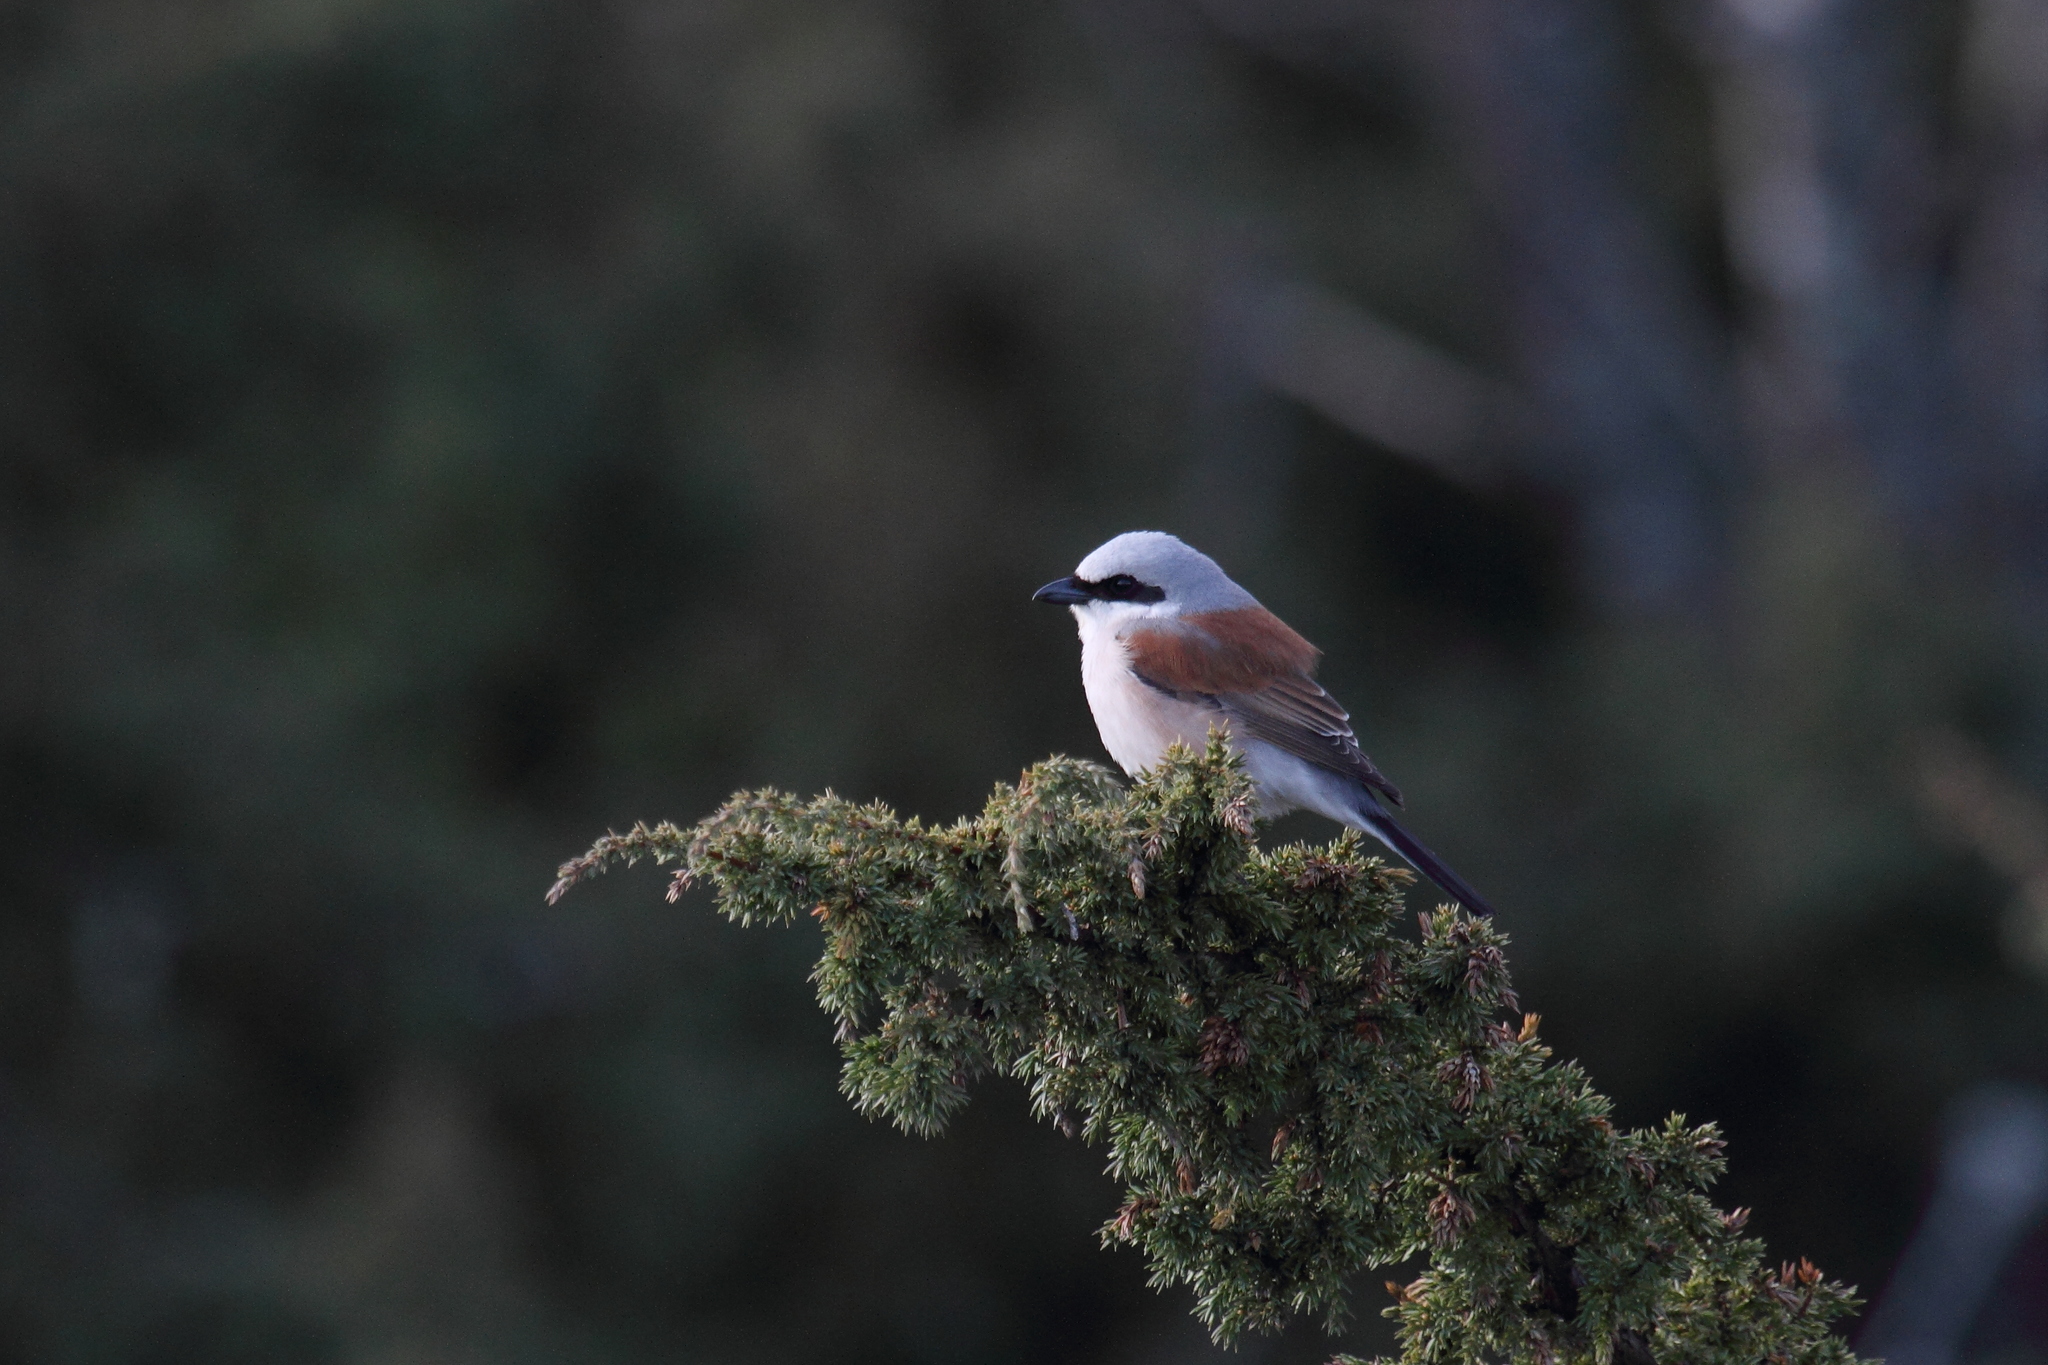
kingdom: Animalia
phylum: Chordata
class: Aves
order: Passeriformes
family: Laniidae
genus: Lanius
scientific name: Lanius collurio
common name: Red-backed shrike
